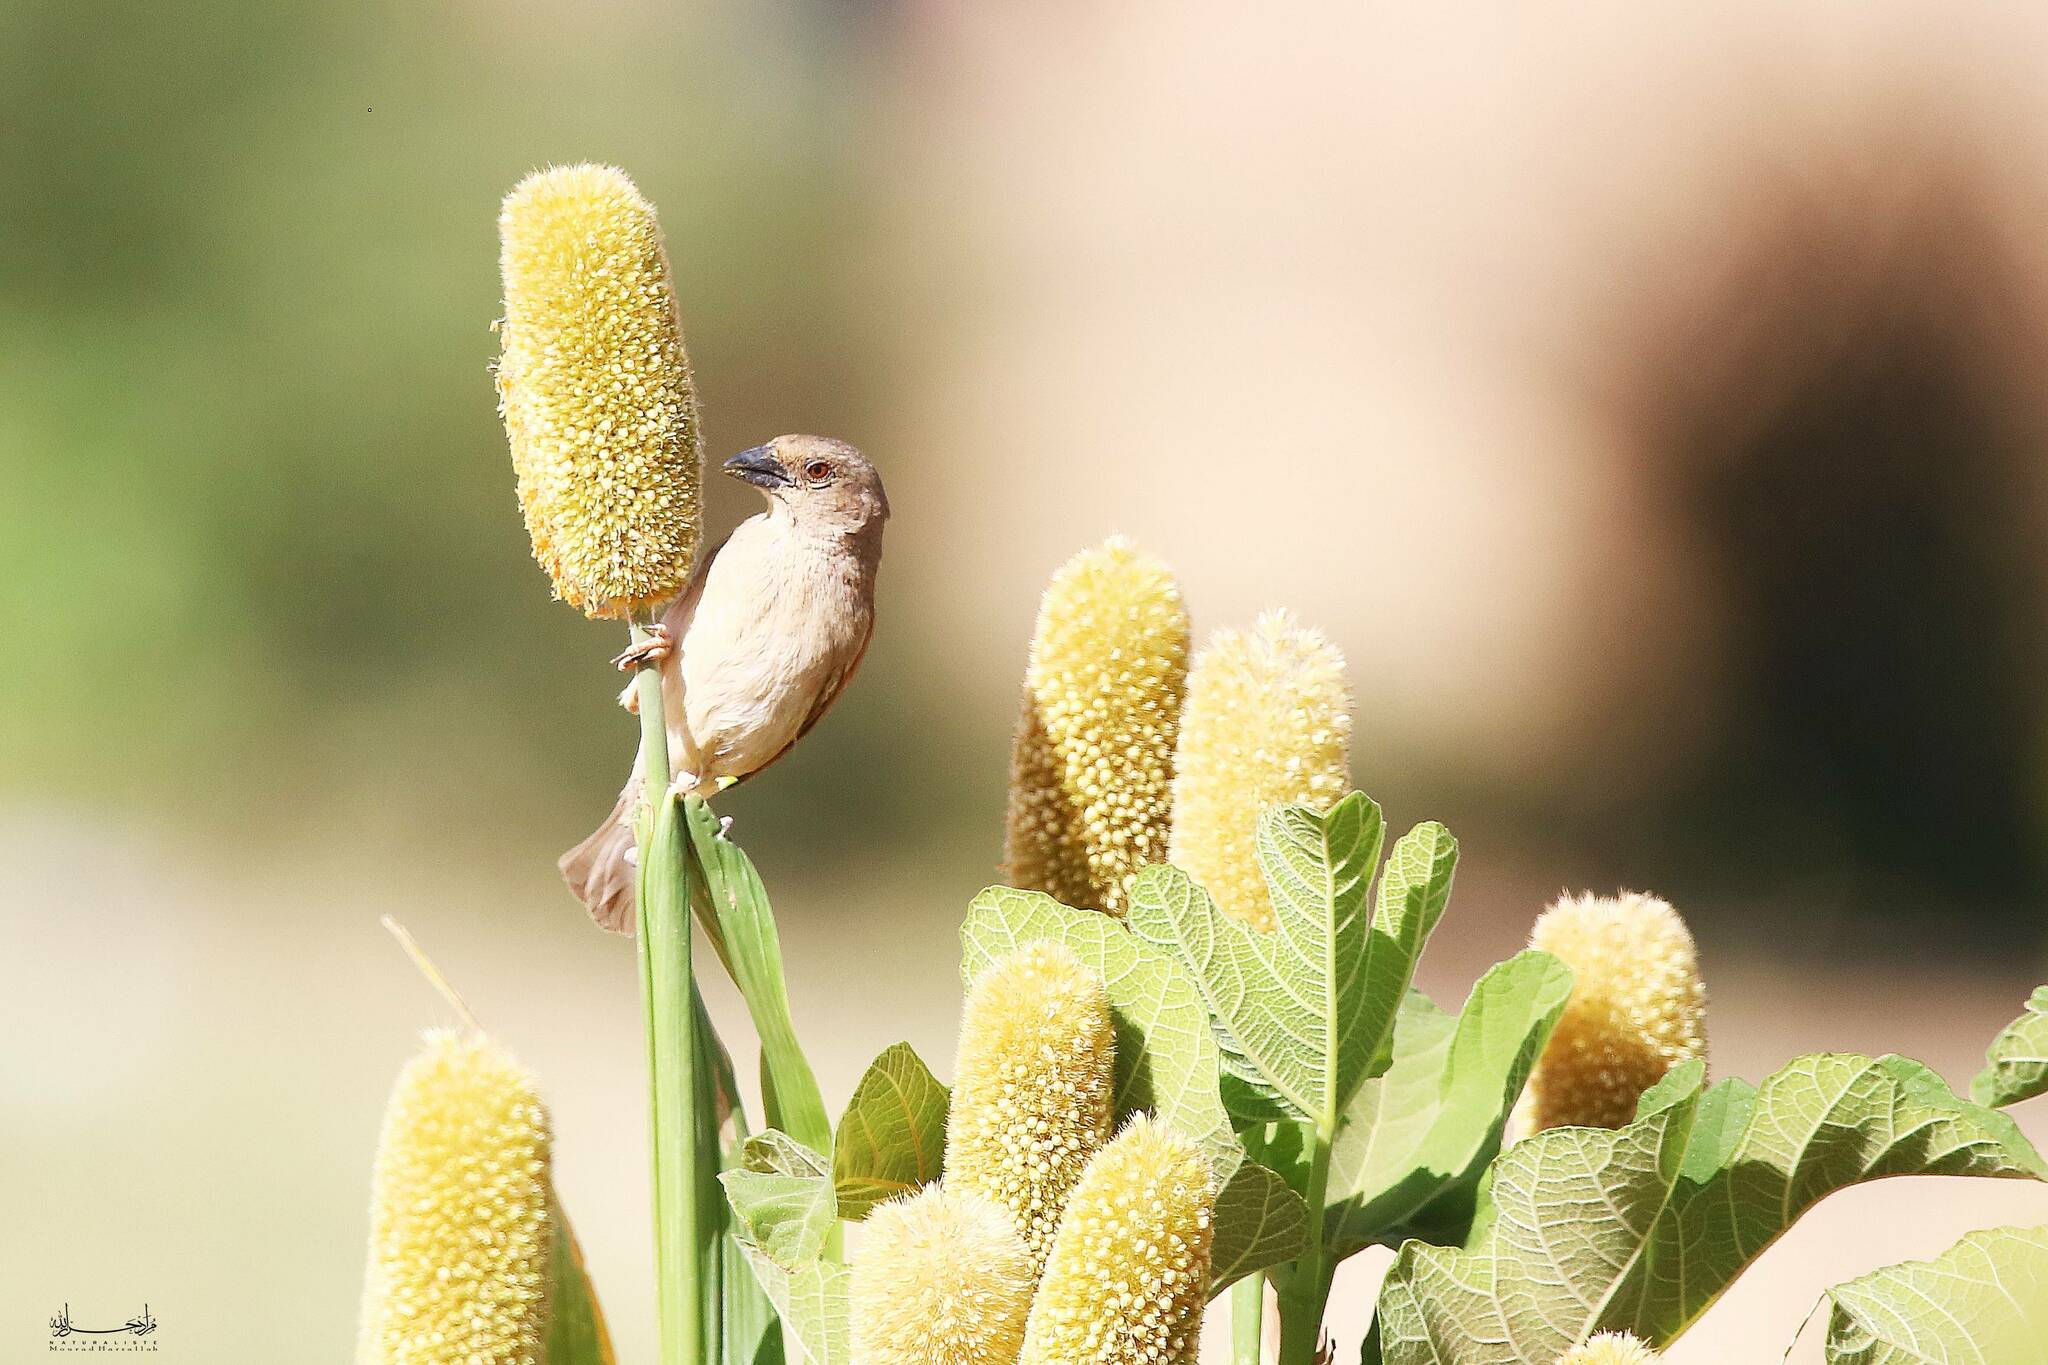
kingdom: Animalia
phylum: Chordata
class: Aves
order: Passeriformes
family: Passeridae
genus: Passer
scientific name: Passer griseus
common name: Northern grey-headed sparrow
